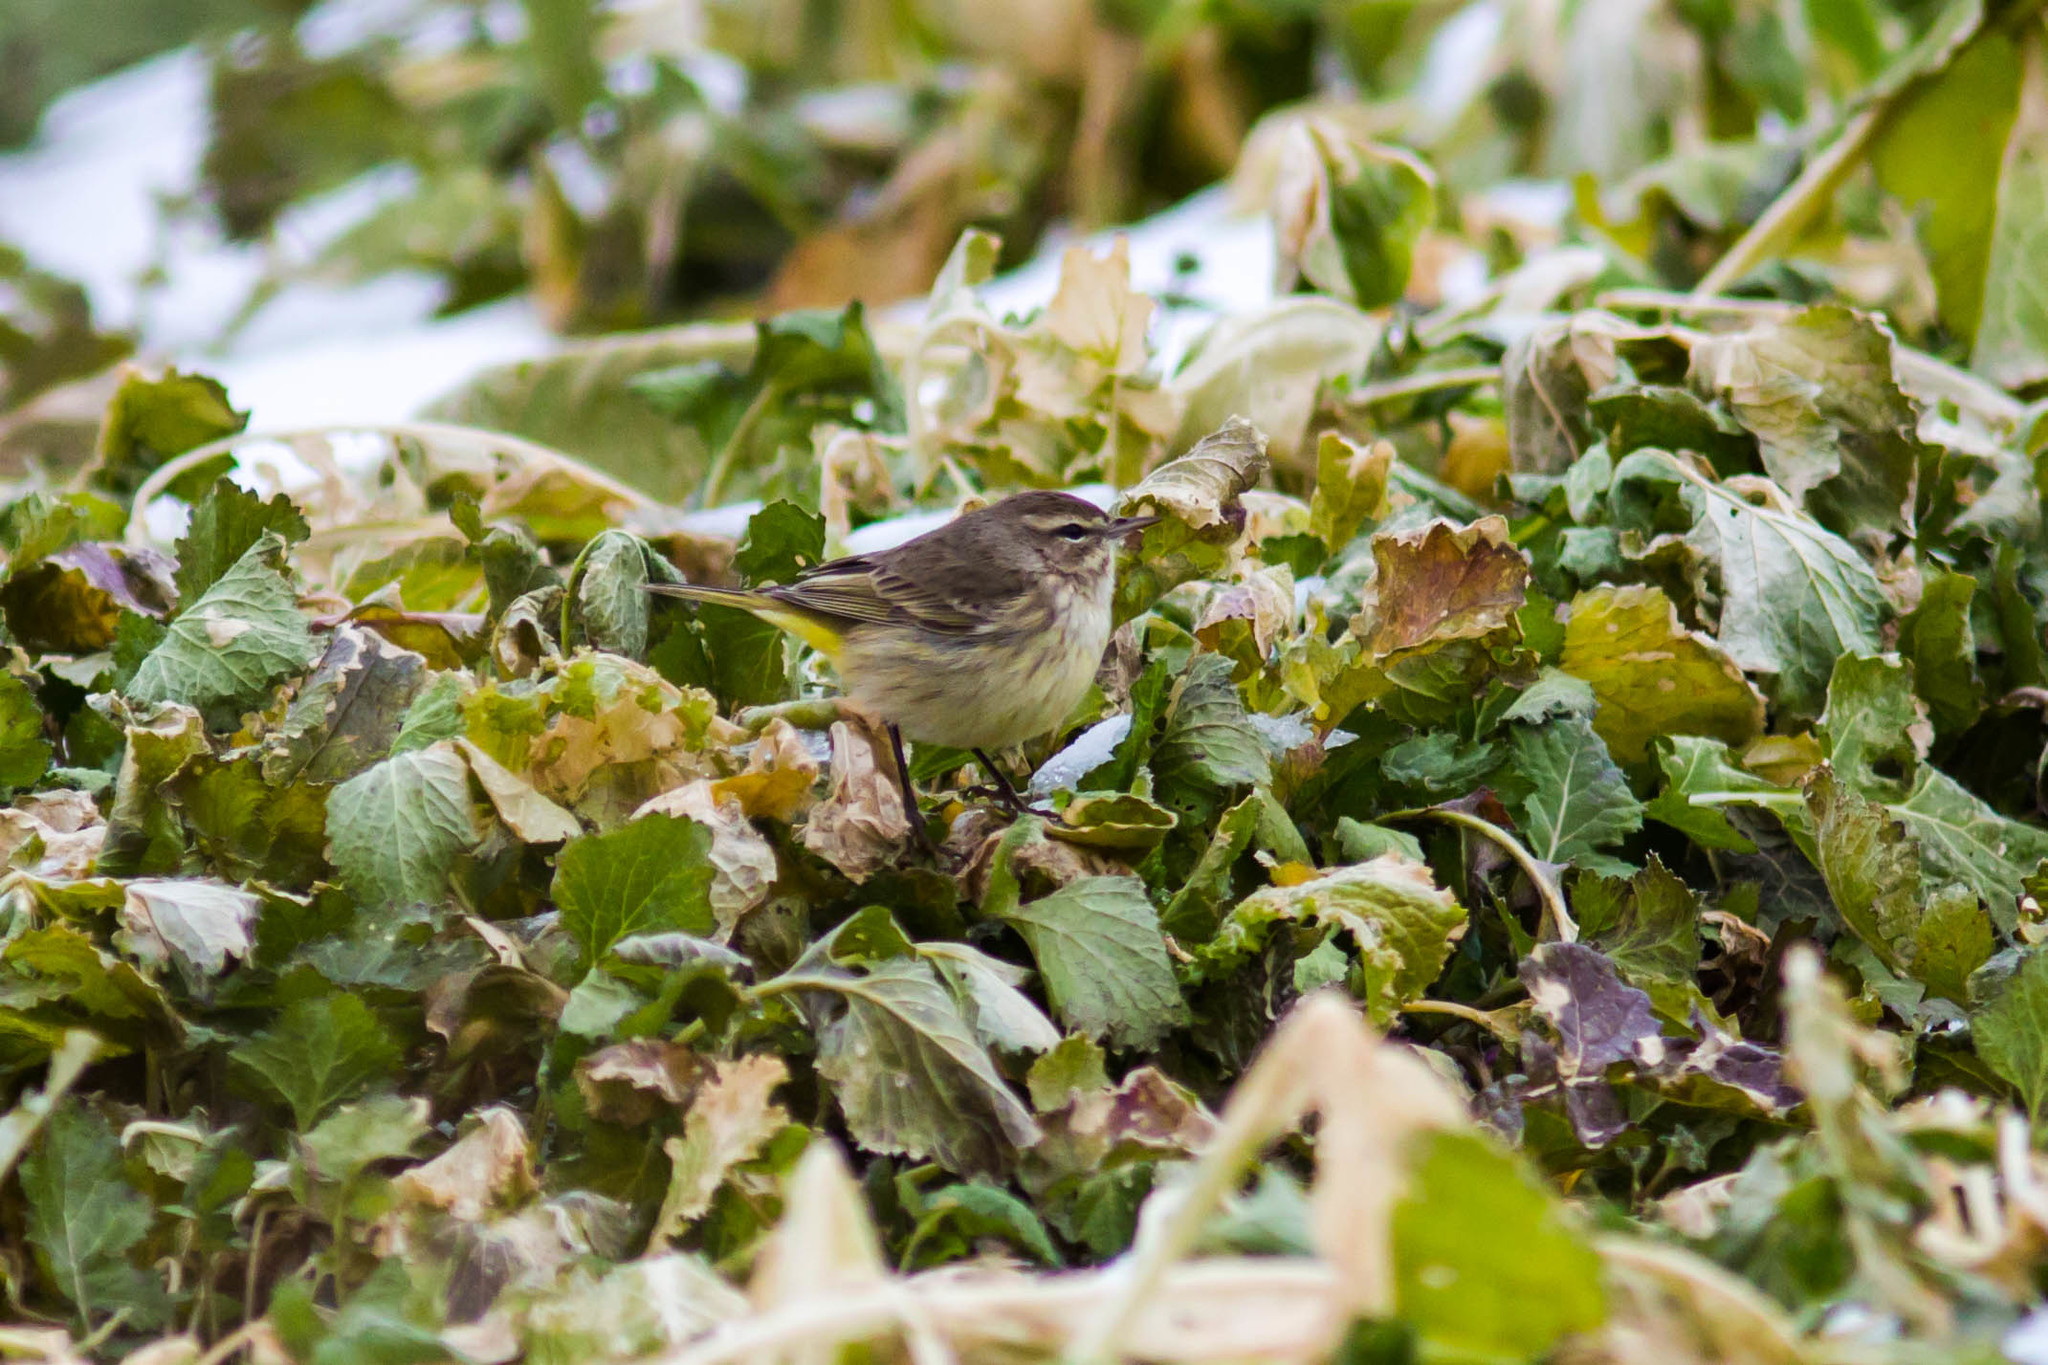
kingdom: Animalia
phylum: Chordata
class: Aves
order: Passeriformes
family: Parulidae
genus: Setophaga
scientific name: Setophaga palmarum
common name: Palm warbler
